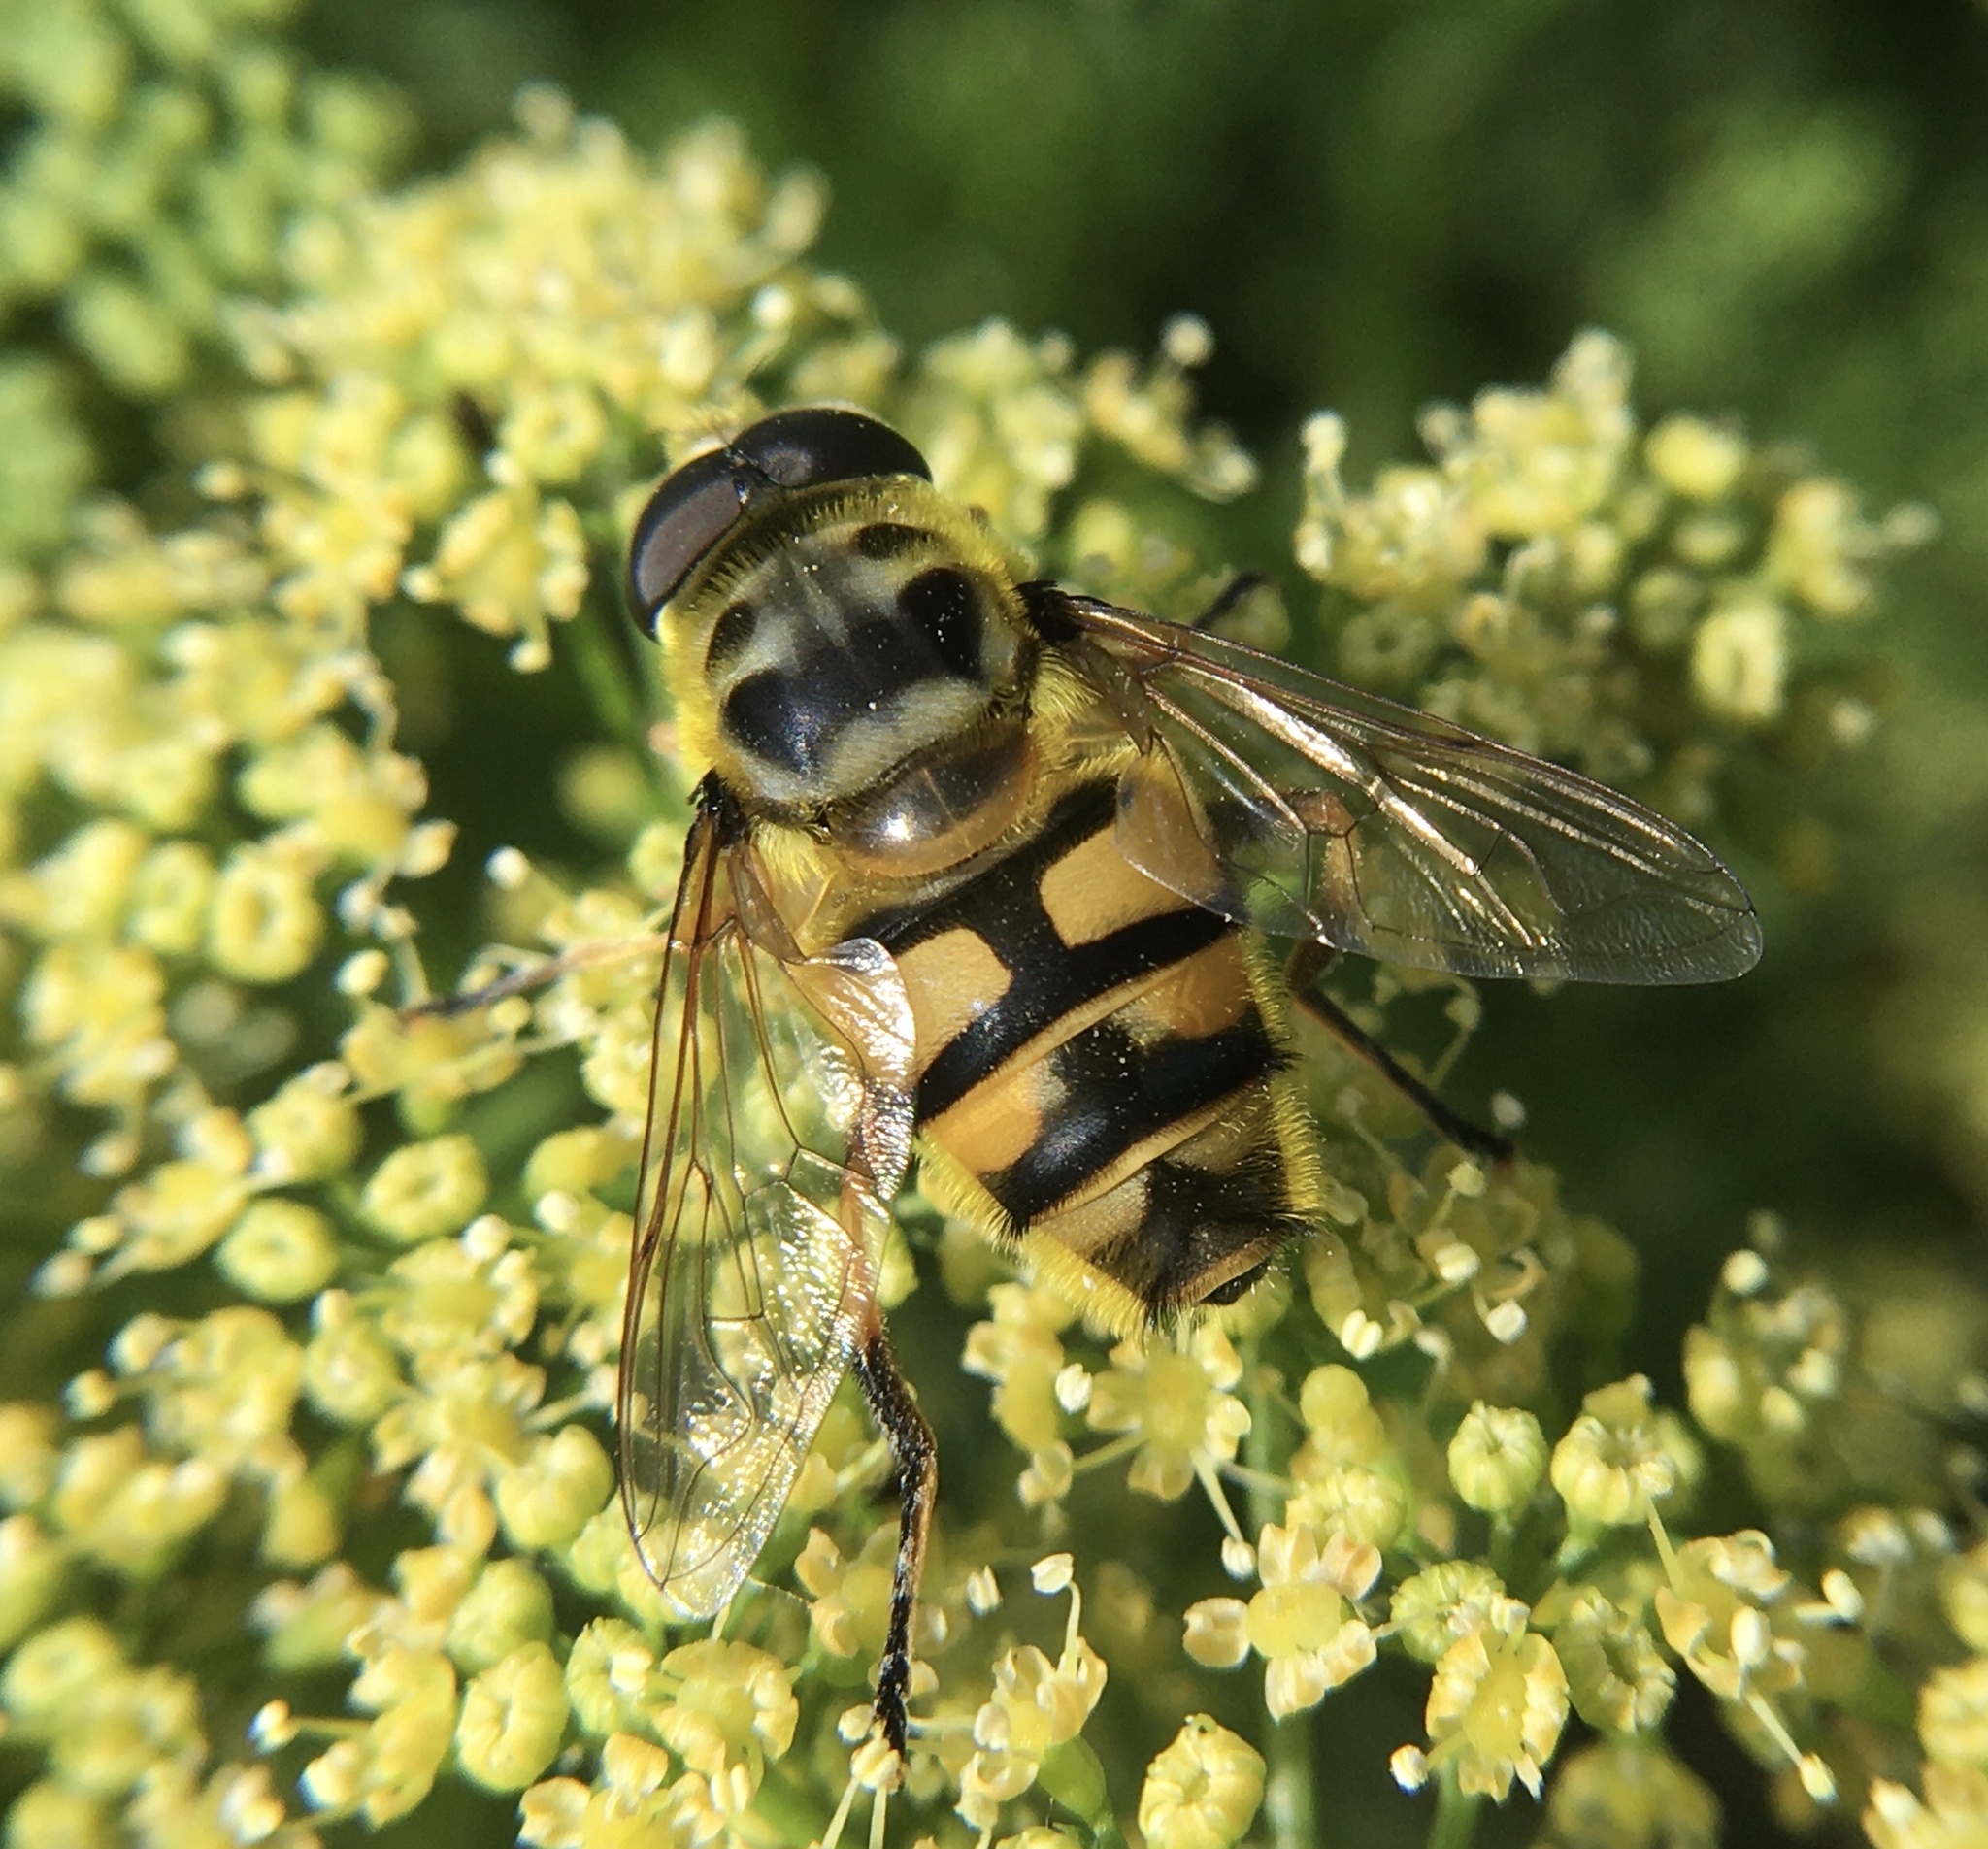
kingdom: Animalia
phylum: Arthropoda
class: Insecta
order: Diptera
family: Syrphidae
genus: Myathropa
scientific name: Myathropa florea
